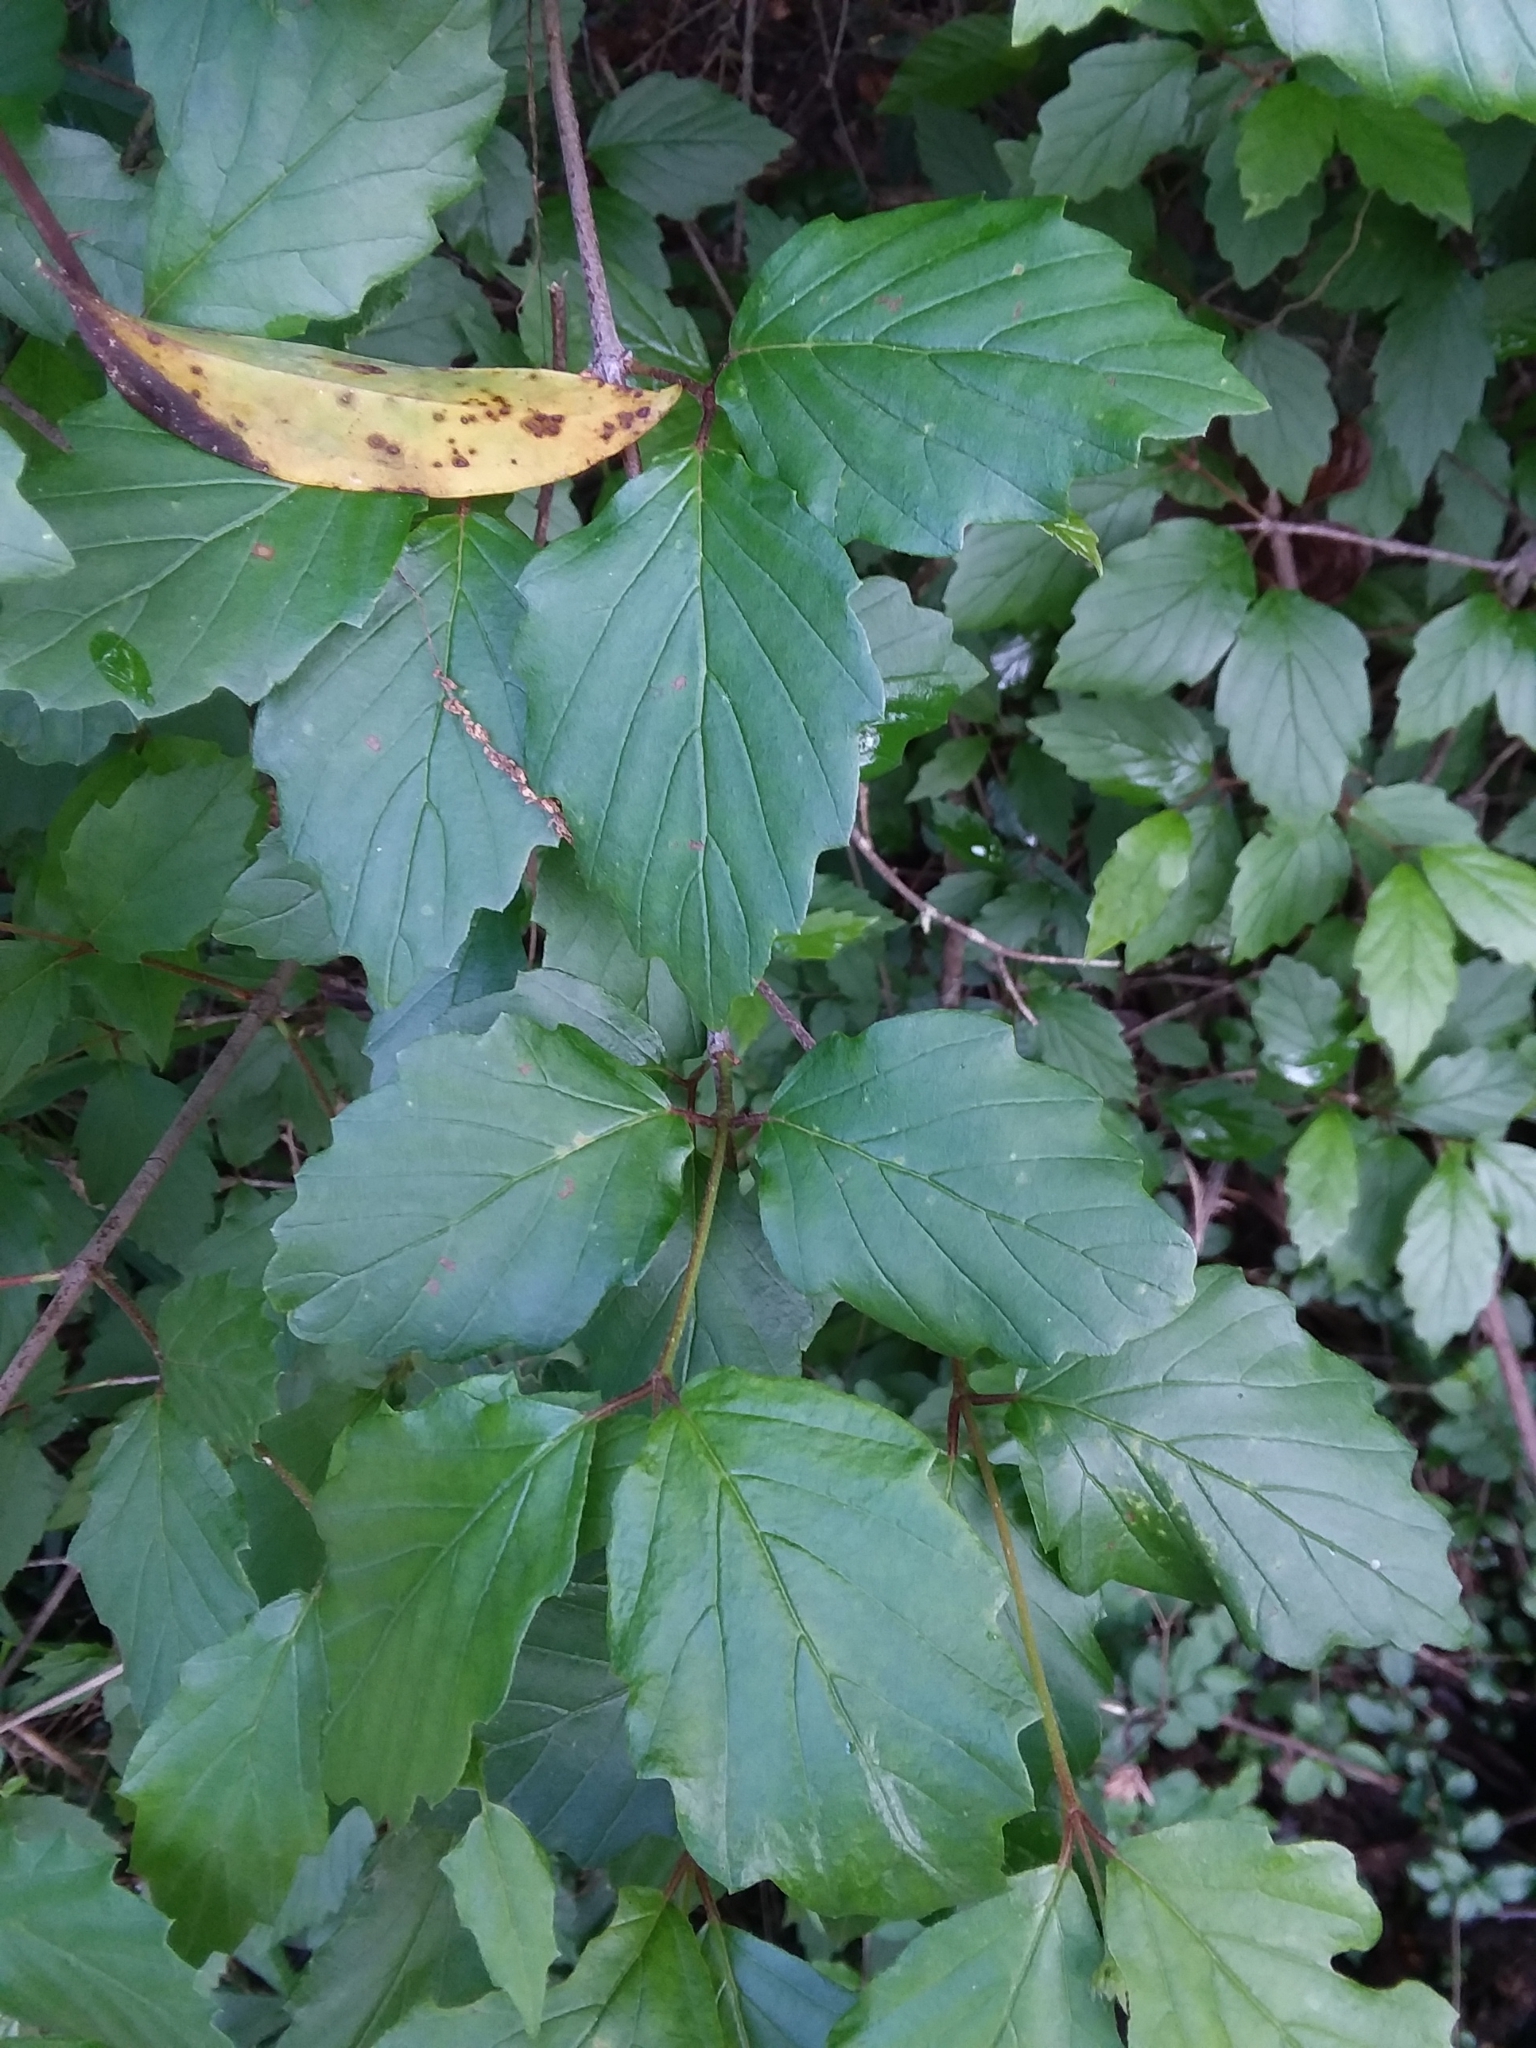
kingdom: Plantae
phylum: Tracheophyta
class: Magnoliopsida
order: Dipsacales
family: Viburnaceae
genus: Viburnum
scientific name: Viburnum scabrellum
